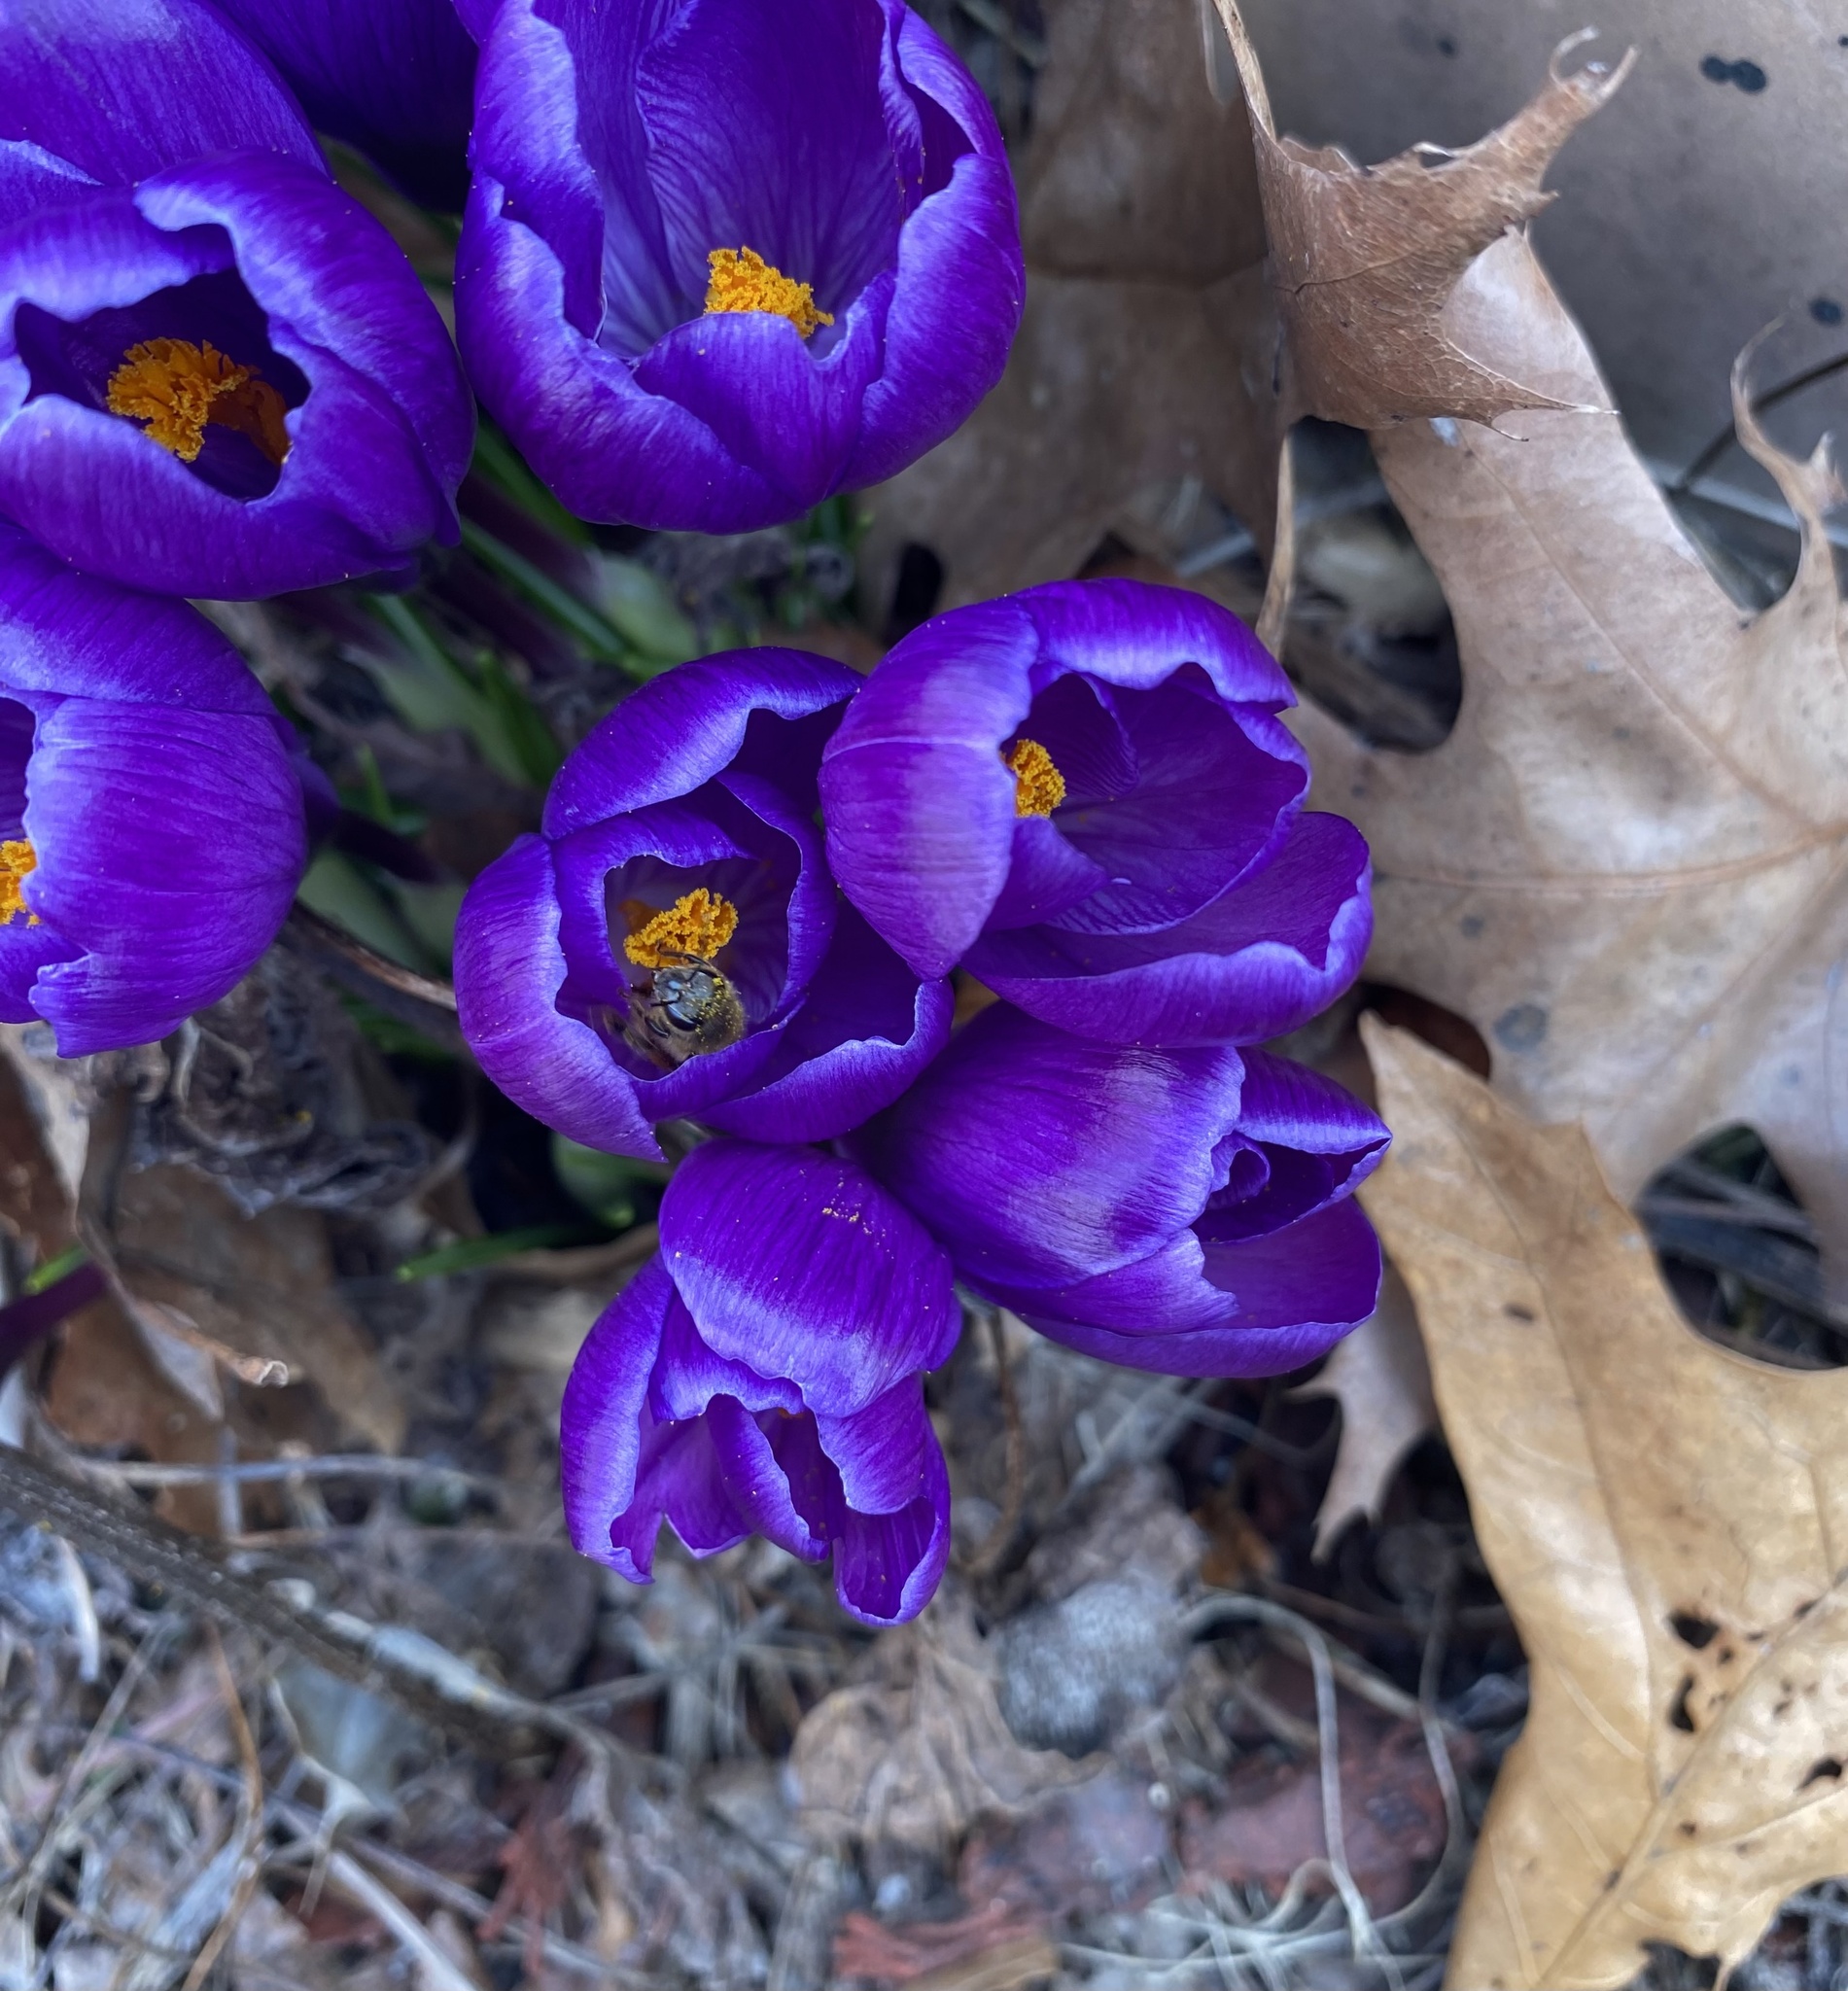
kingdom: Animalia
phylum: Arthropoda
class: Insecta
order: Hymenoptera
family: Apidae
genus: Apis
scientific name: Apis mellifera
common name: Honey bee
